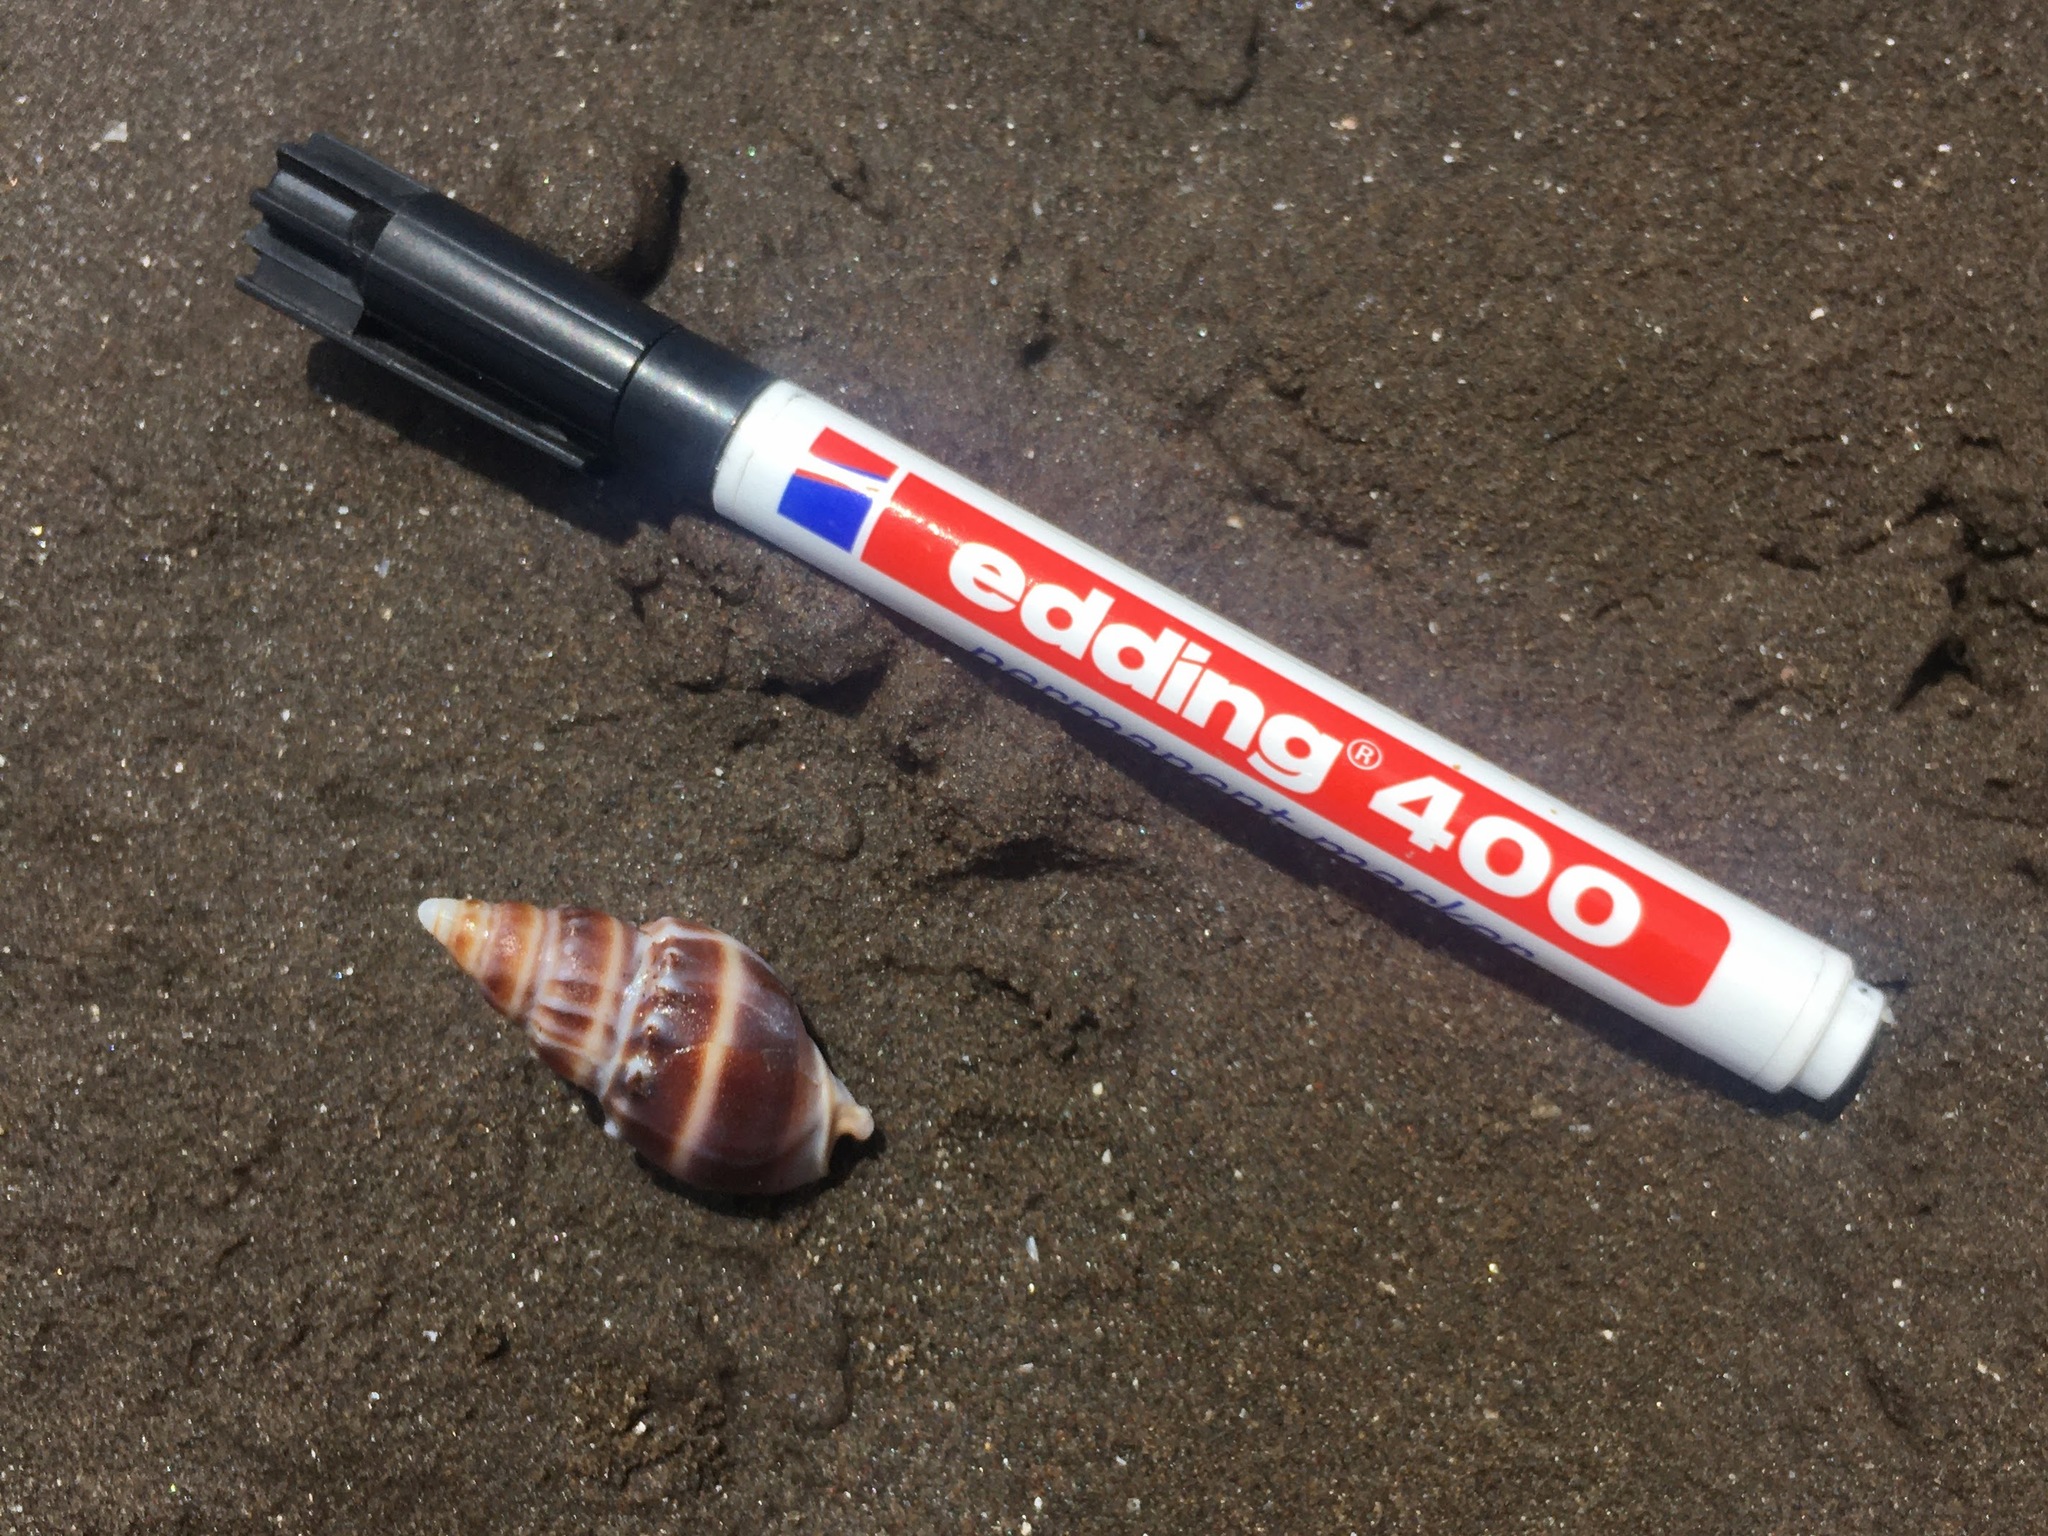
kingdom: Animalia
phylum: Mollusca
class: Gastropoda
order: Neogastropoda
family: Buccinanopsidae
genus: Buccinanops
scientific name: Buccinanops monilifer
